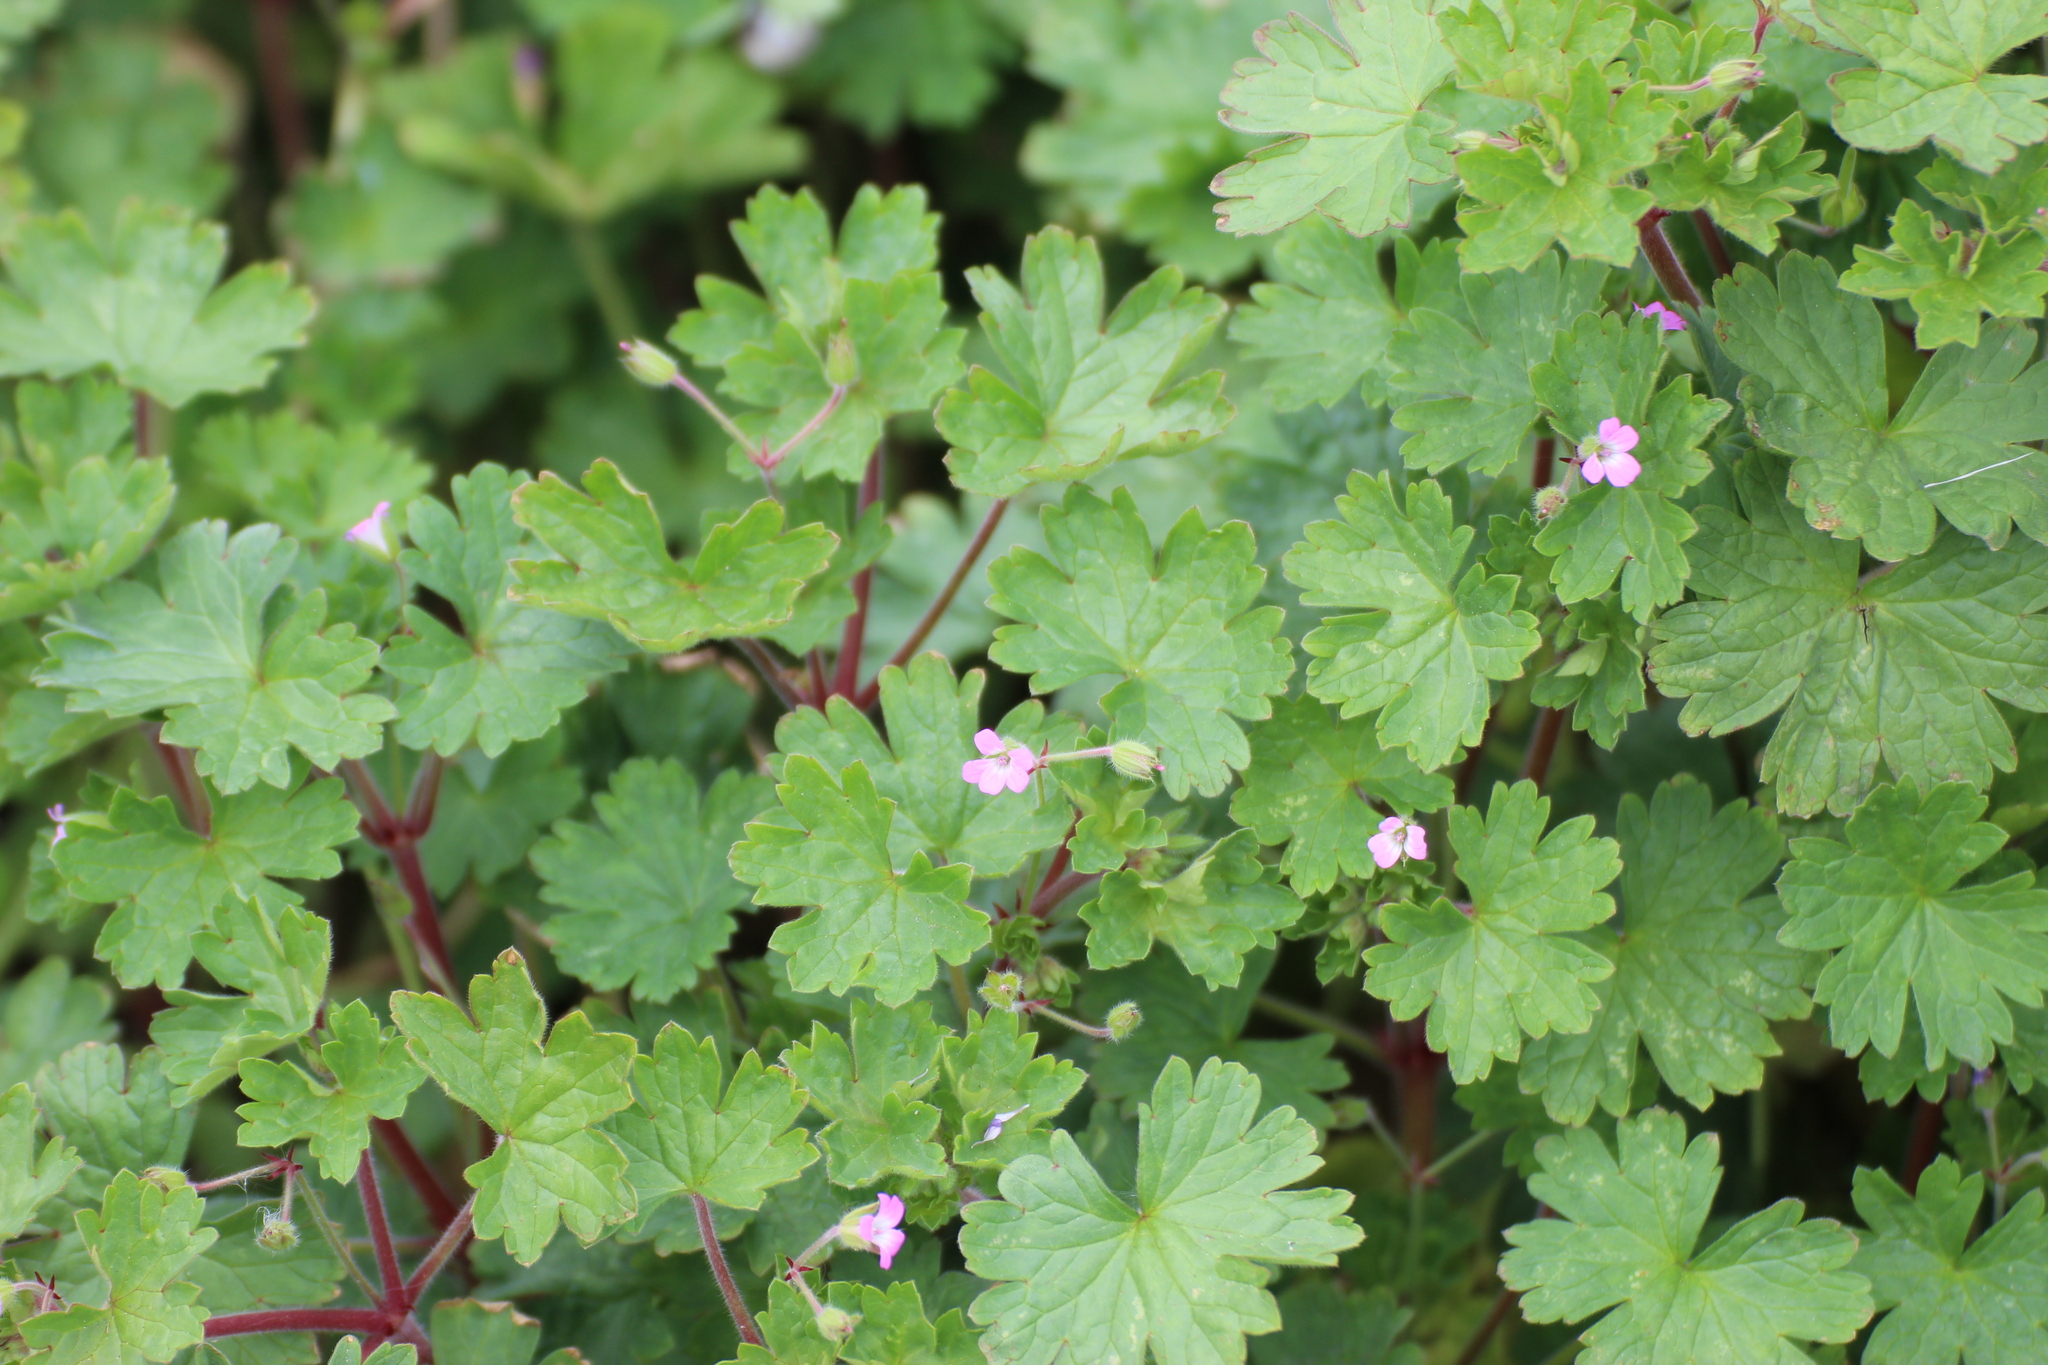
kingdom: Plantae
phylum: Tracheophyta
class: Magnoliopsida
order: Geraniales
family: Geraniaceae
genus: Geranium
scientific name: Geranium rotundifolium
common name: Round-leaved crane's-bill
